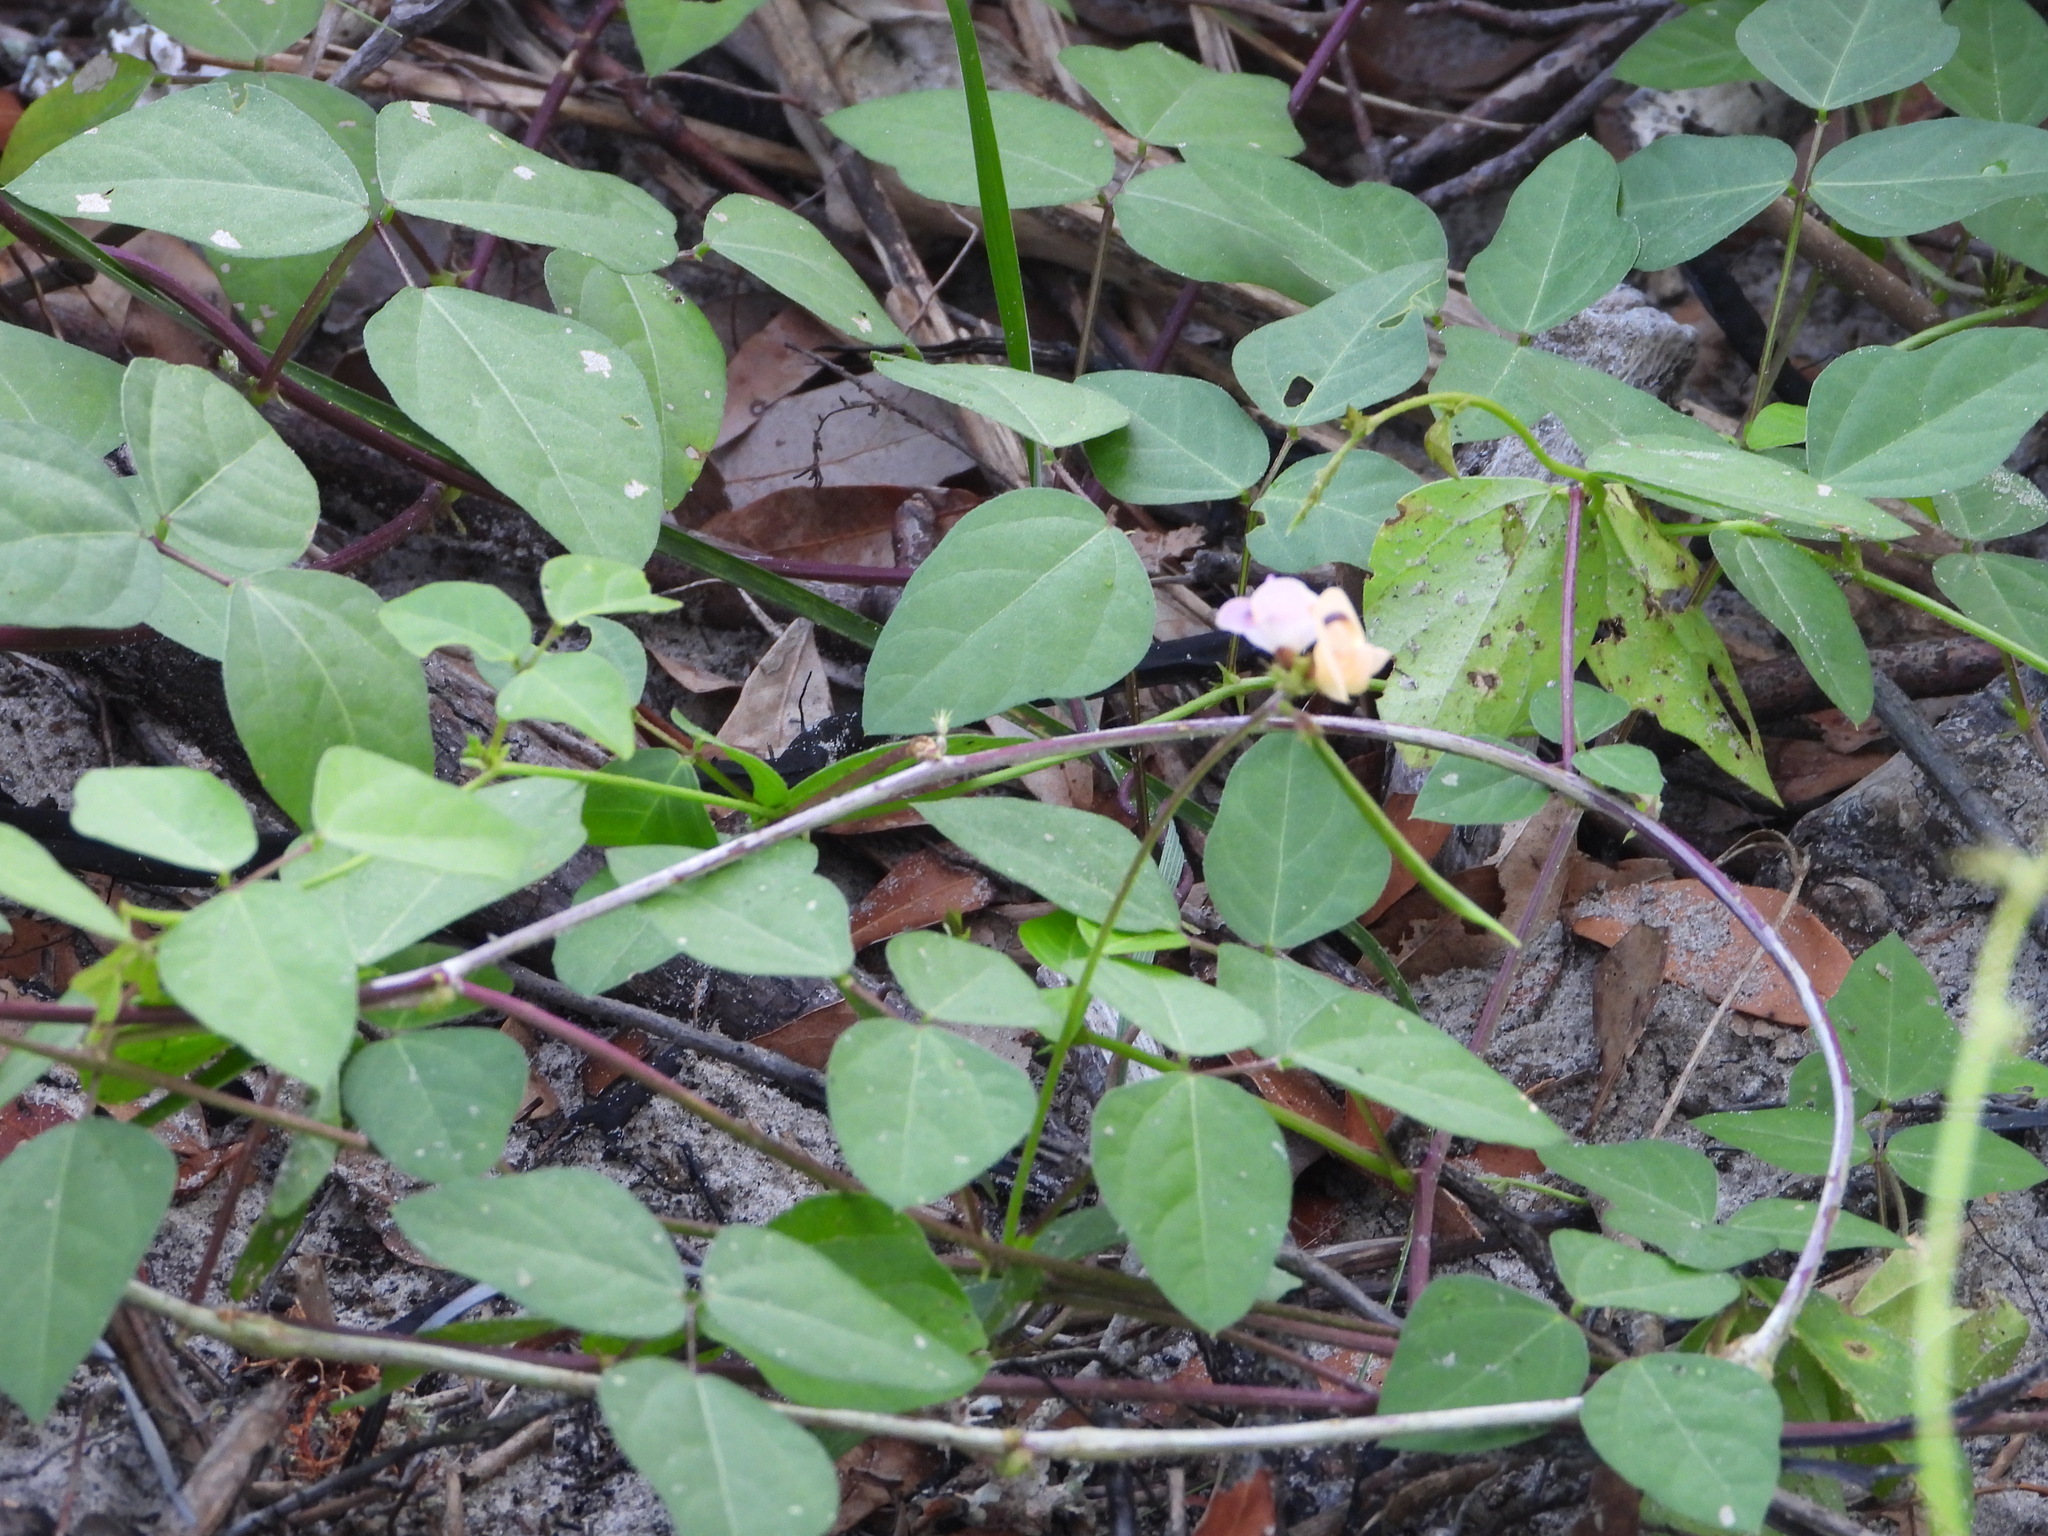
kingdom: Plantae
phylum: Tracheophyta
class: Magnoliopsida
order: Fabales
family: Fabaceae
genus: Strophostyles
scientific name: Strophostyles helvola
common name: Trailing wild bean
